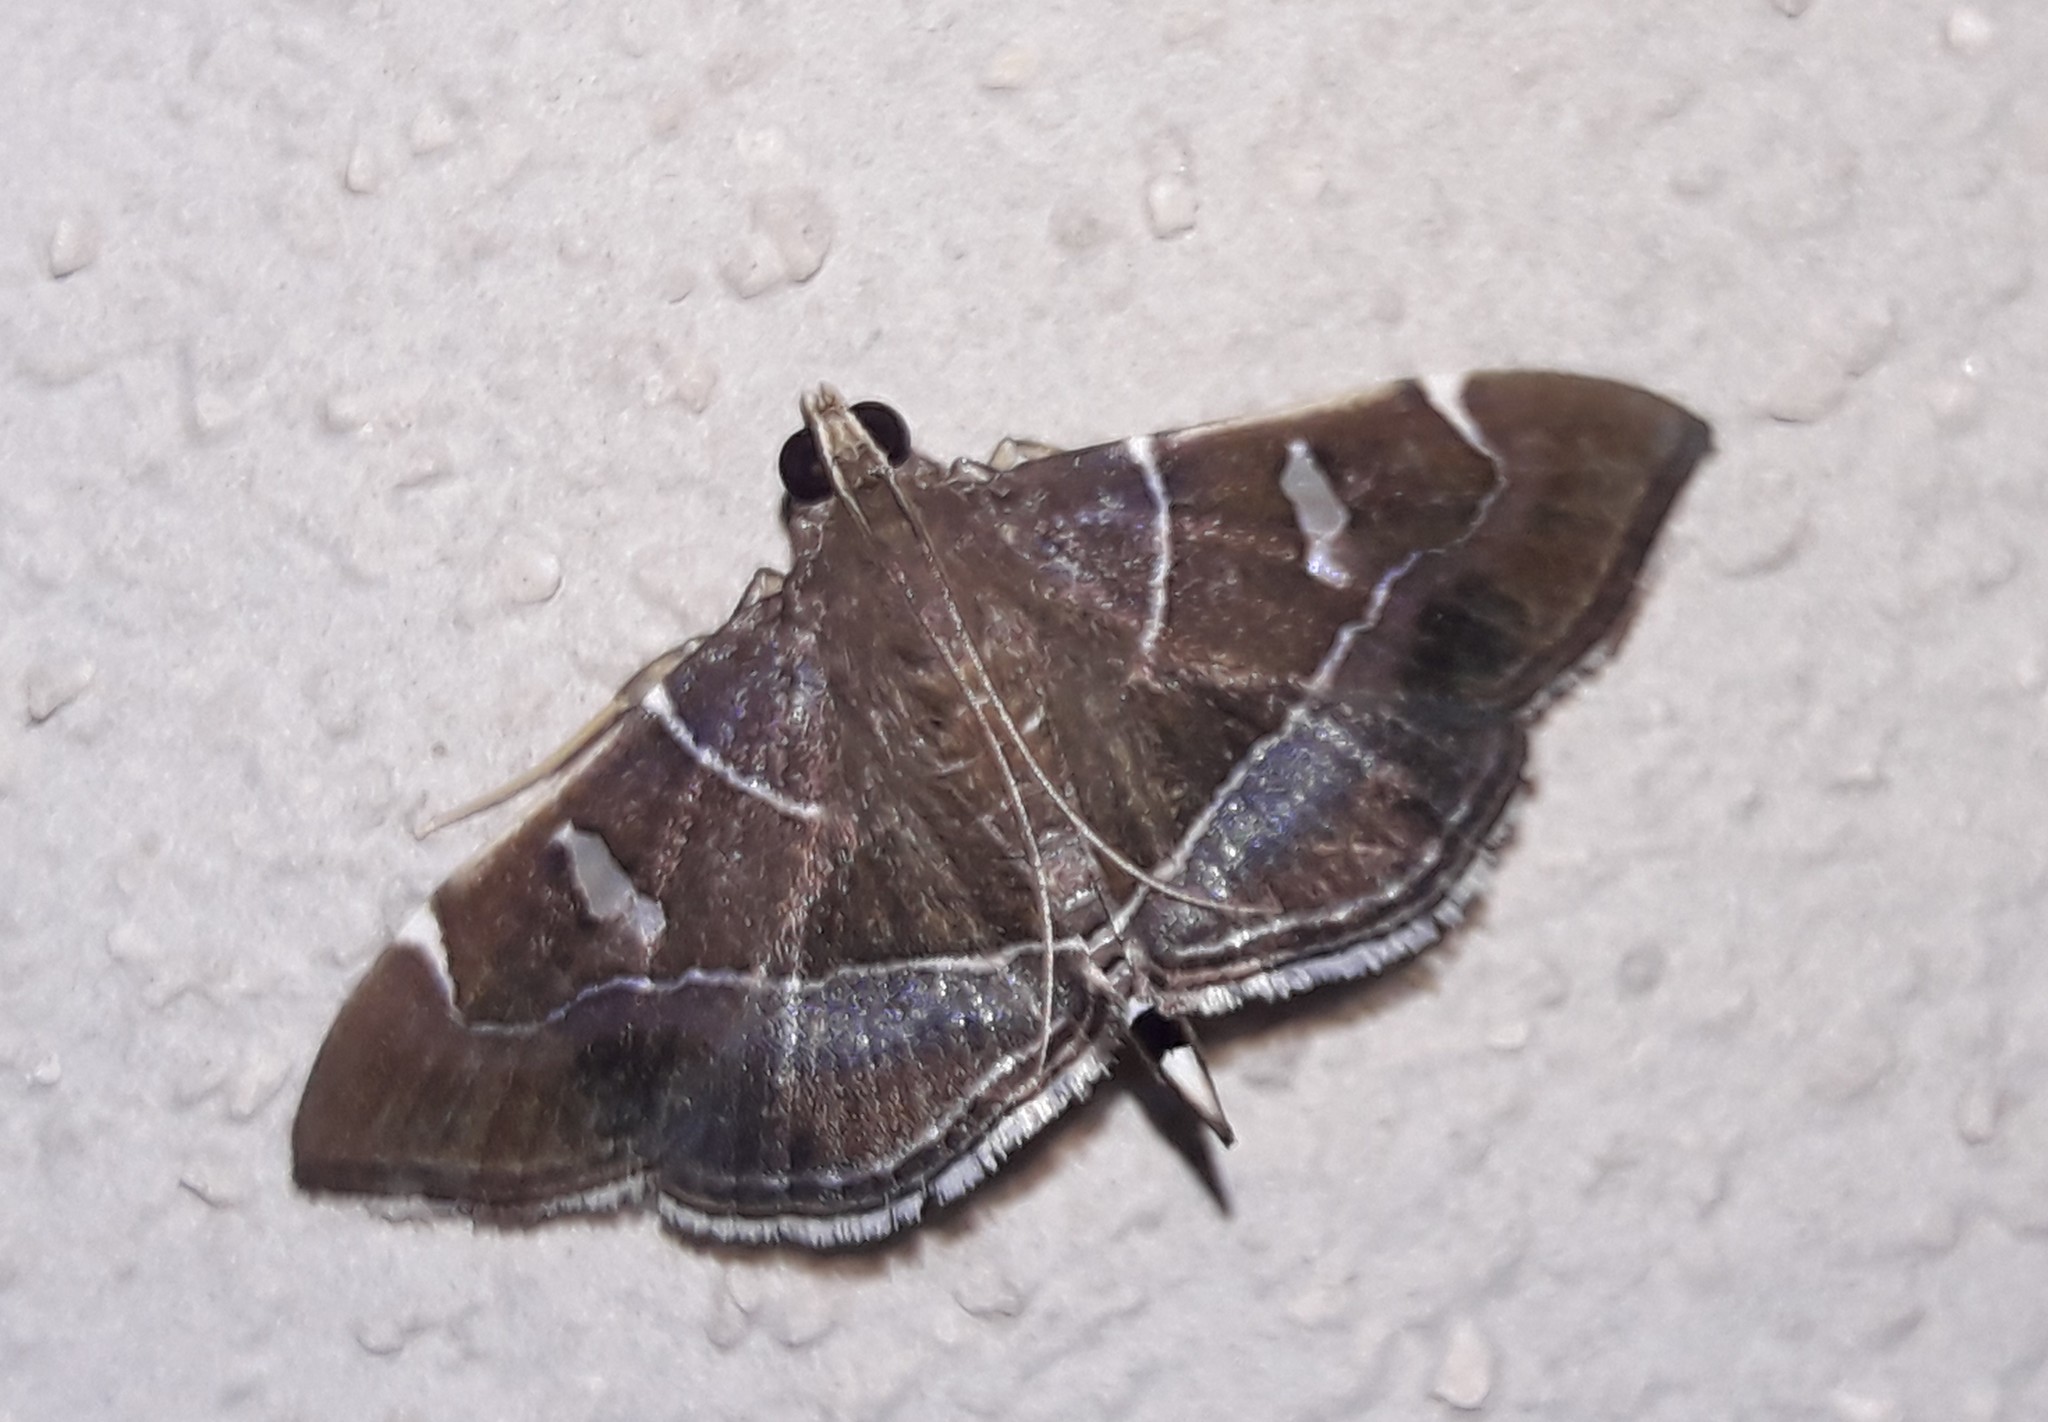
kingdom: Animalia
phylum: Arthropoda
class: Insecta
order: Lepidoptera
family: Crambidae
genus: Lamprosema
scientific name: Lamprosema dorisalis
